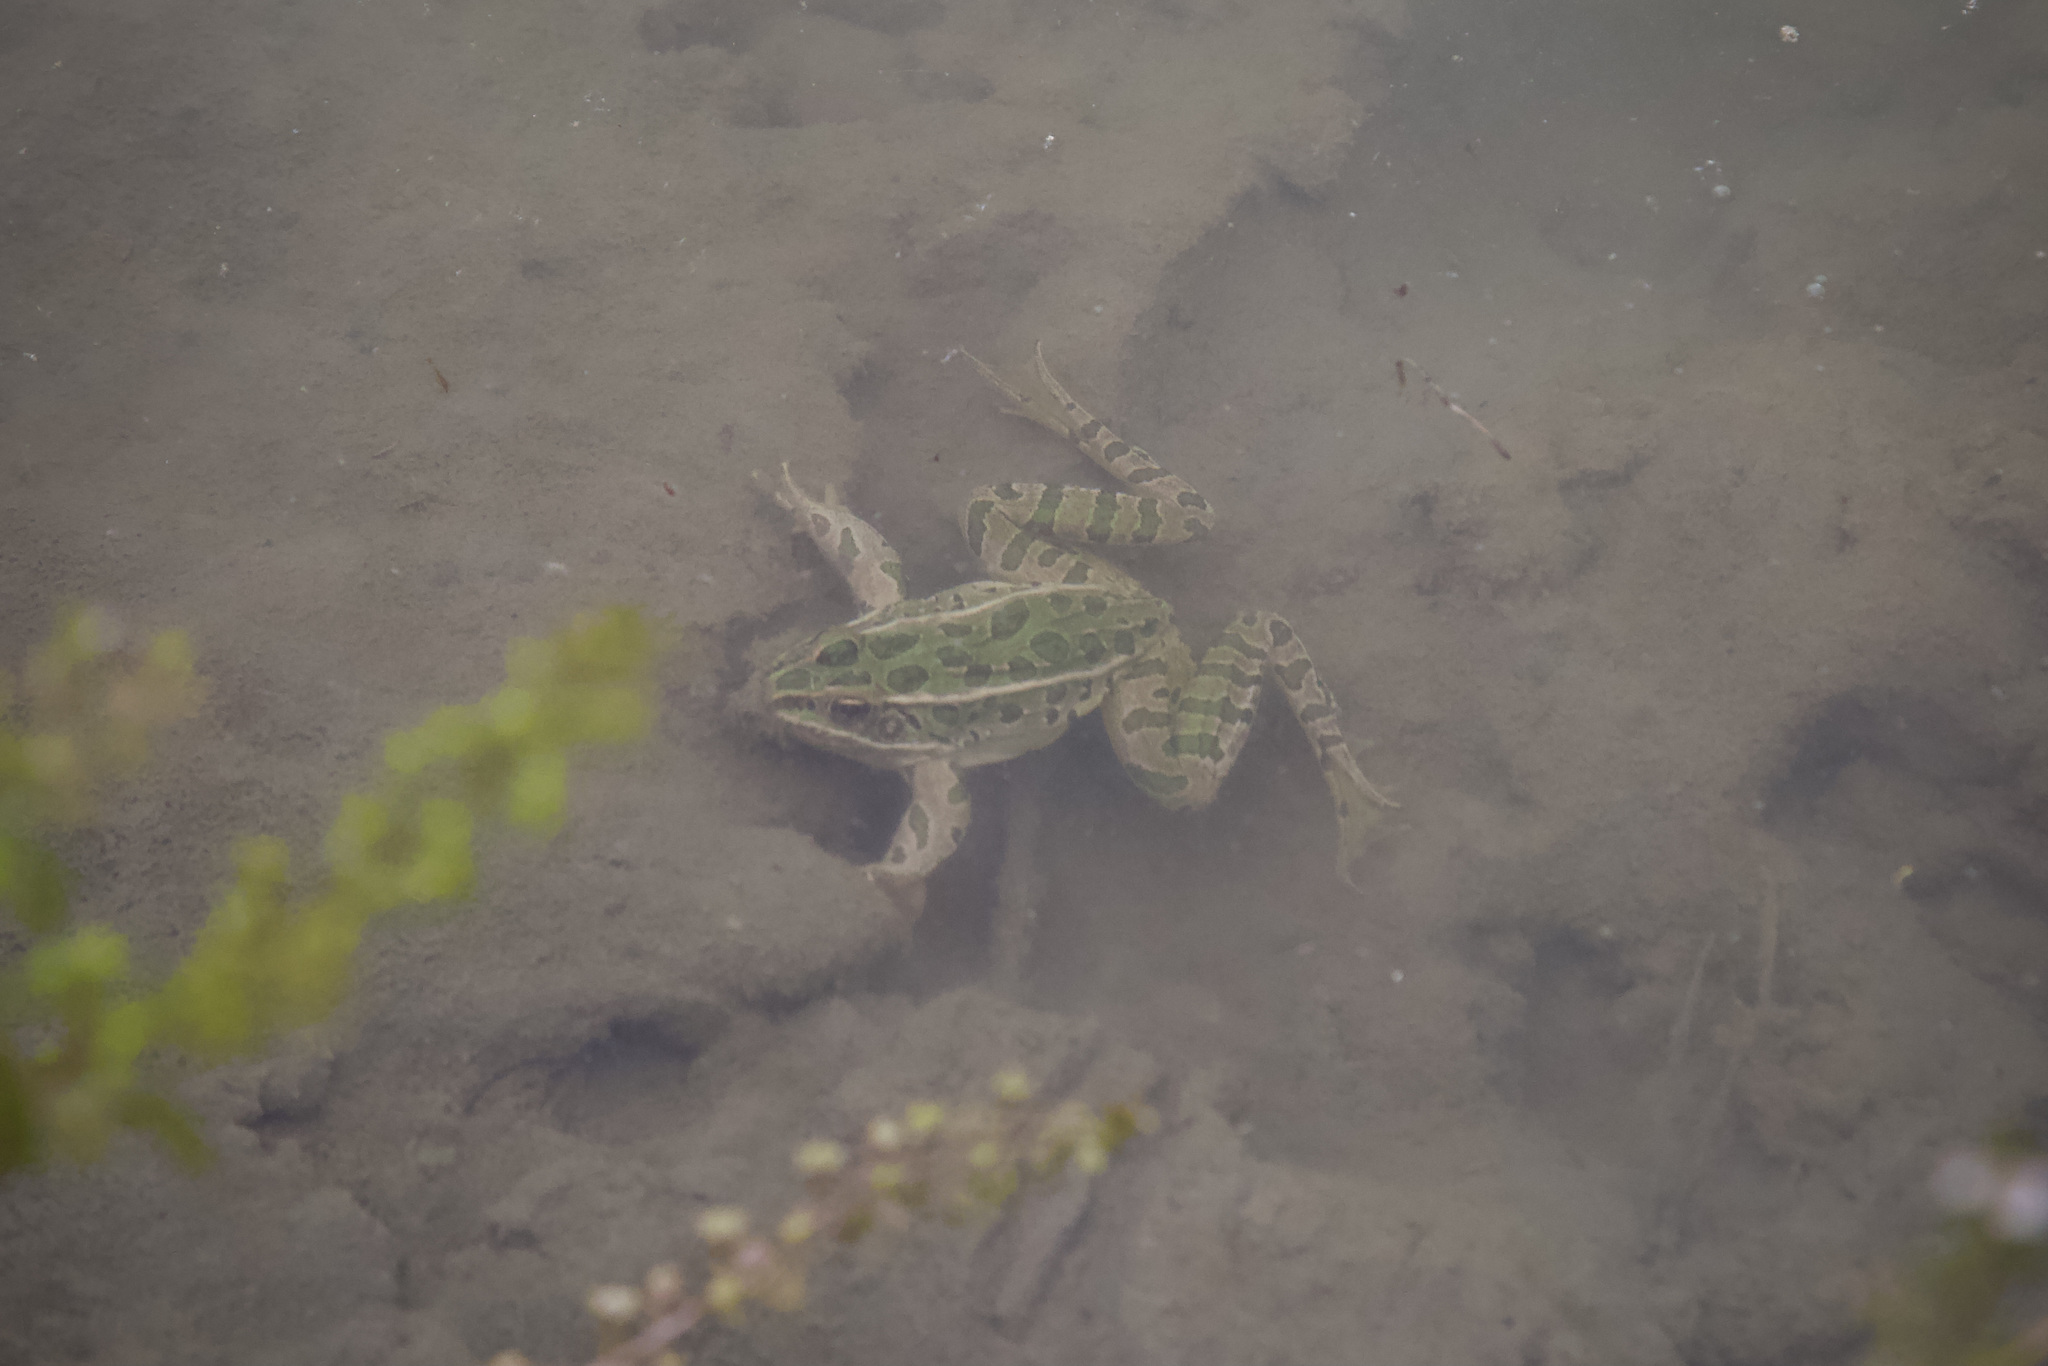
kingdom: Animalia
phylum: Chordata
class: Amphibia
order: Anura
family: Ranidae
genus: Lithobates
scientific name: Lithobates pipiens
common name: Northern leopard frog
